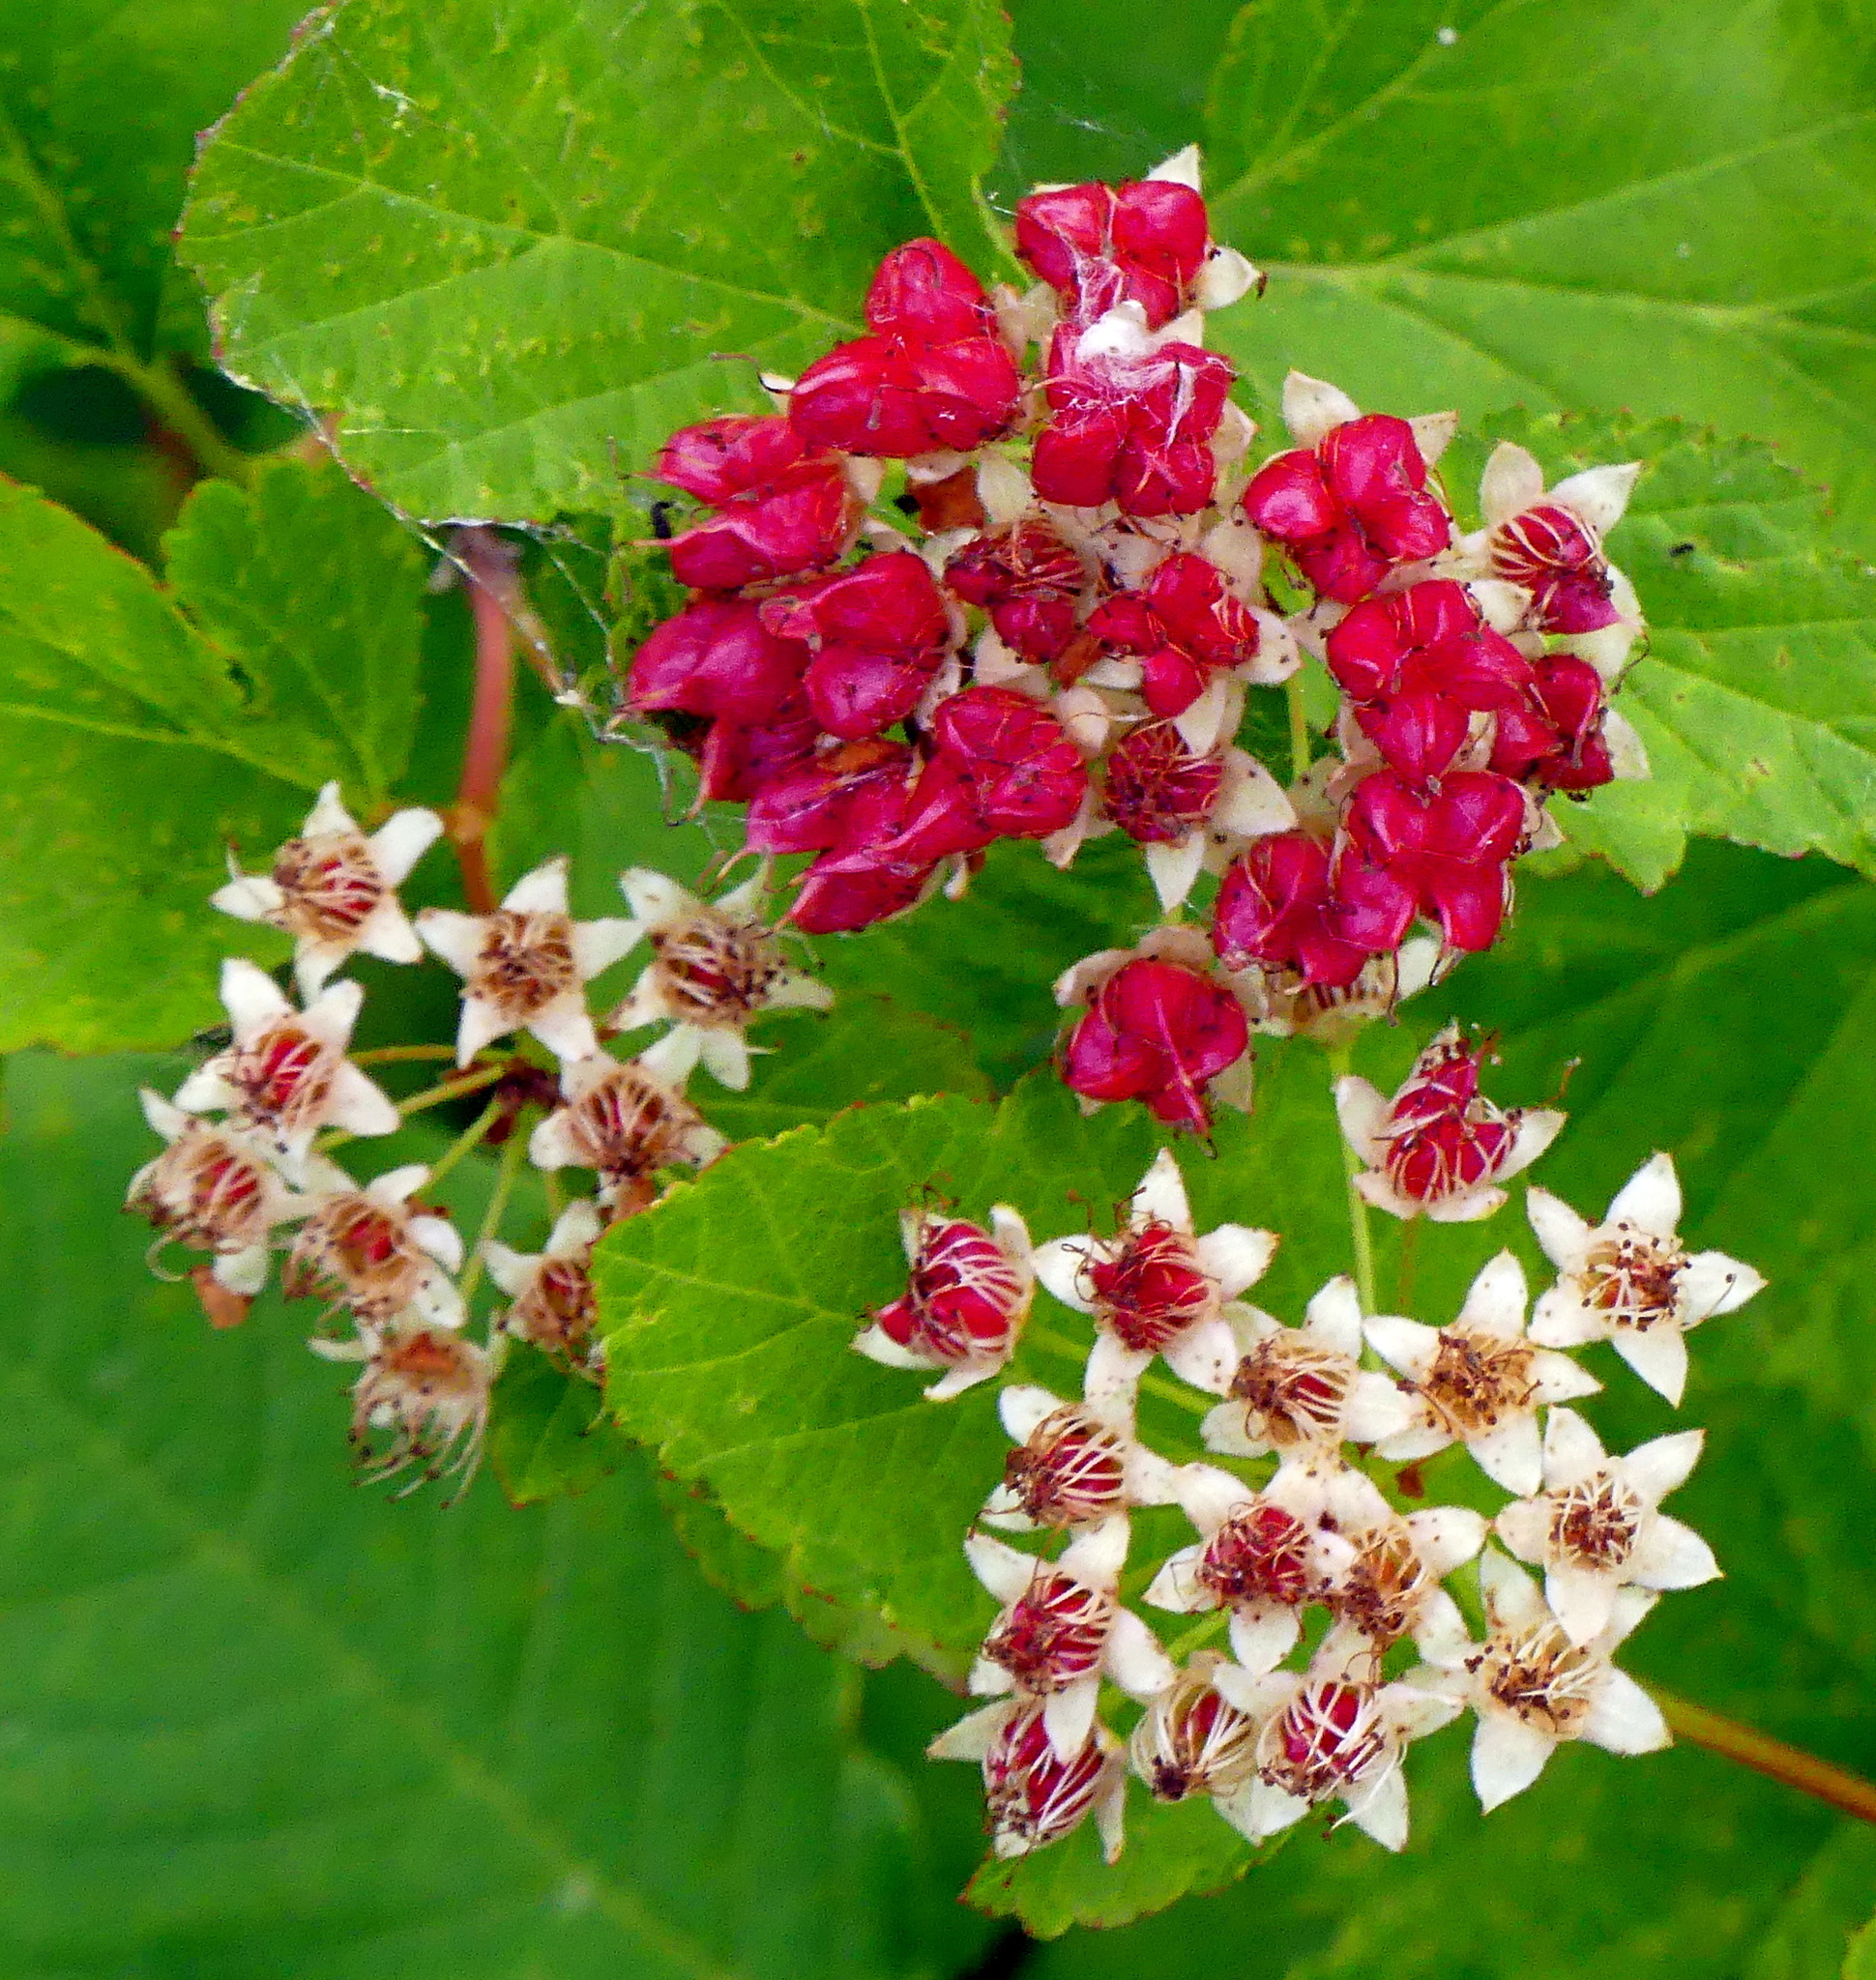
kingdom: Plantae
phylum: Tracheophyta
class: Magnoliopsida
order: Rosales
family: Rosaceae
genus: Physocarpus
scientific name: Physocarpus opulifolius
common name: Ninebark
